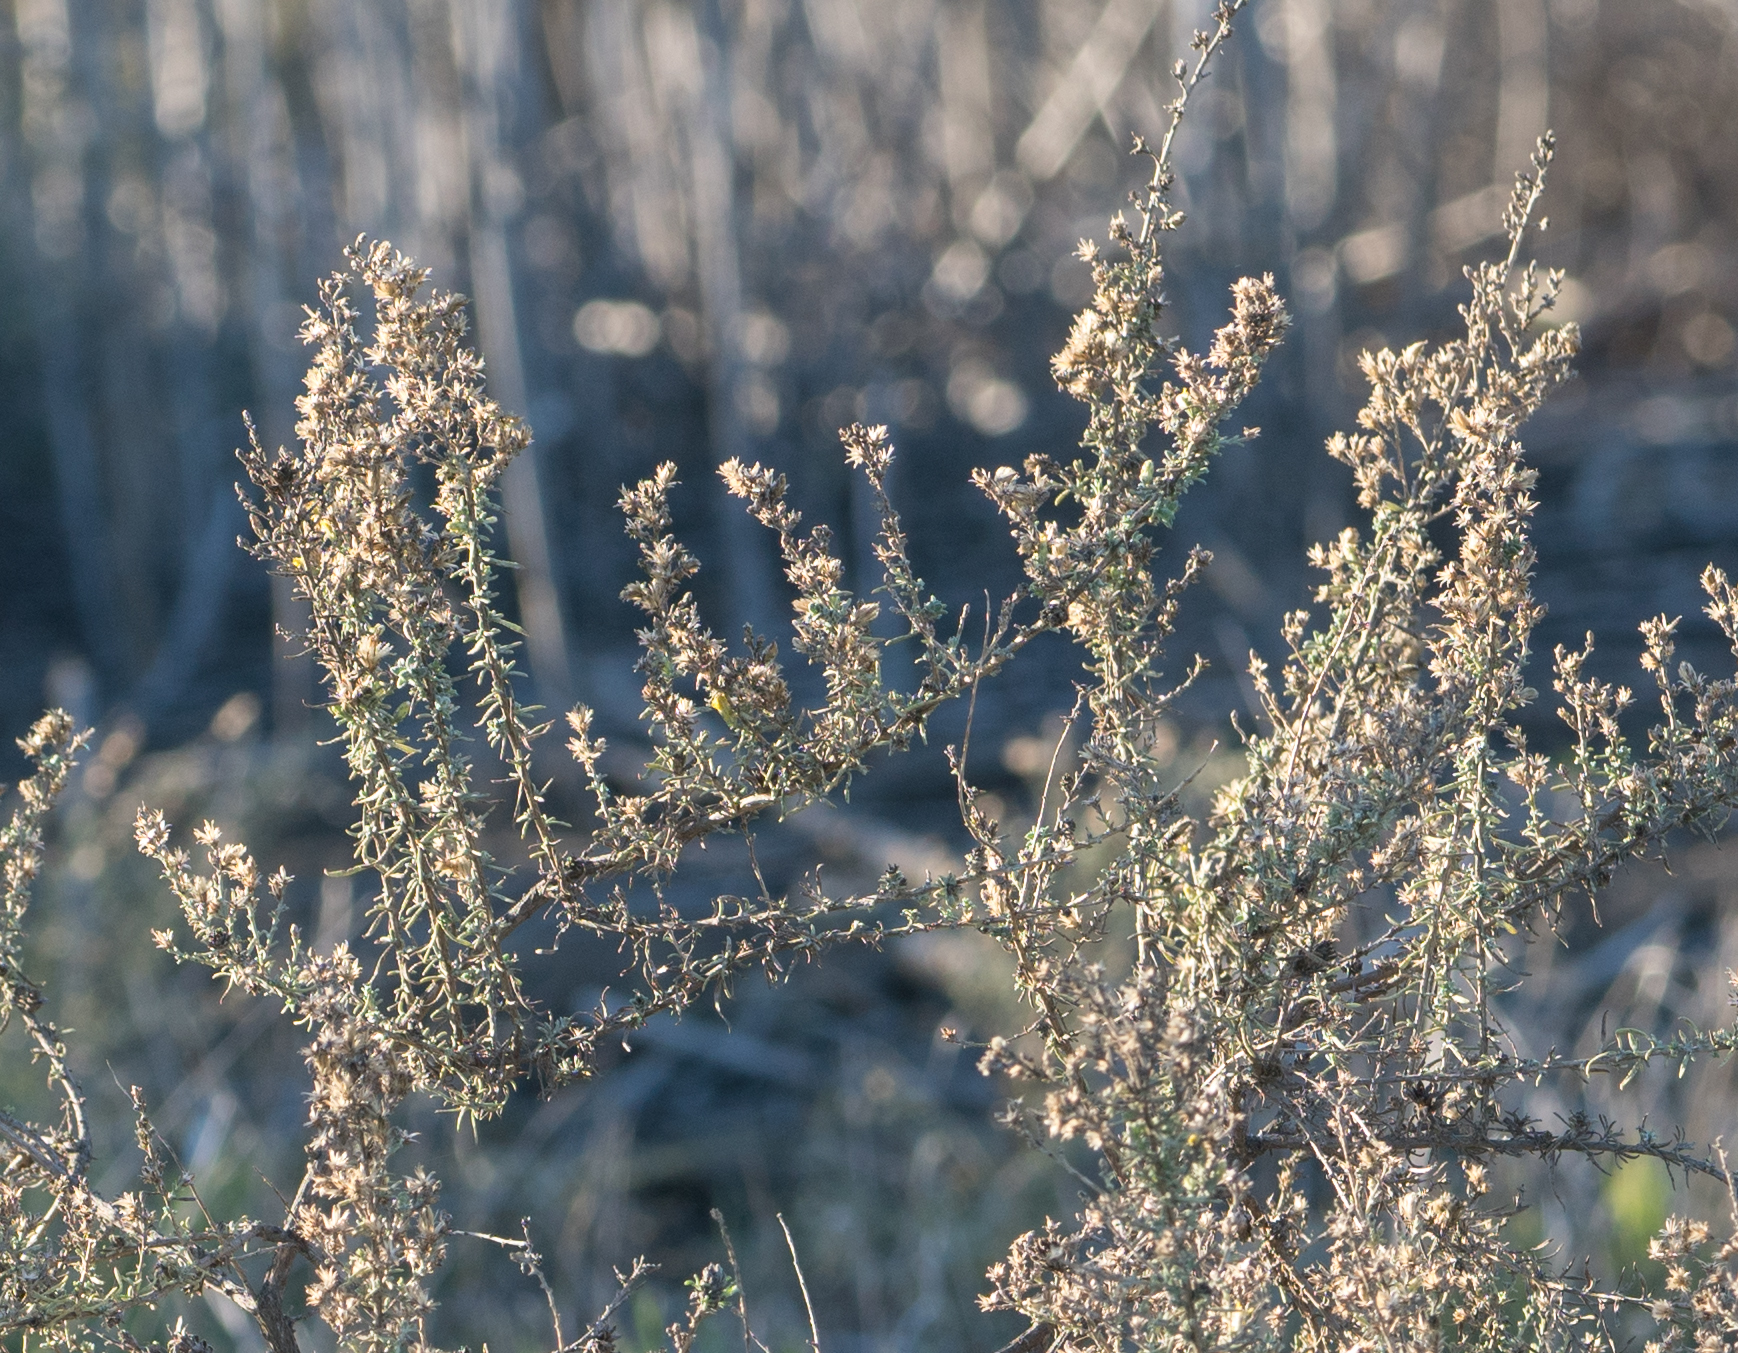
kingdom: Plantae
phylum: Tracheophyta
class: Magnoliopsida
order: Asterales
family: Asteraceae
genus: Artemisia
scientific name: Artemisia californica
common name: California sagebrush
